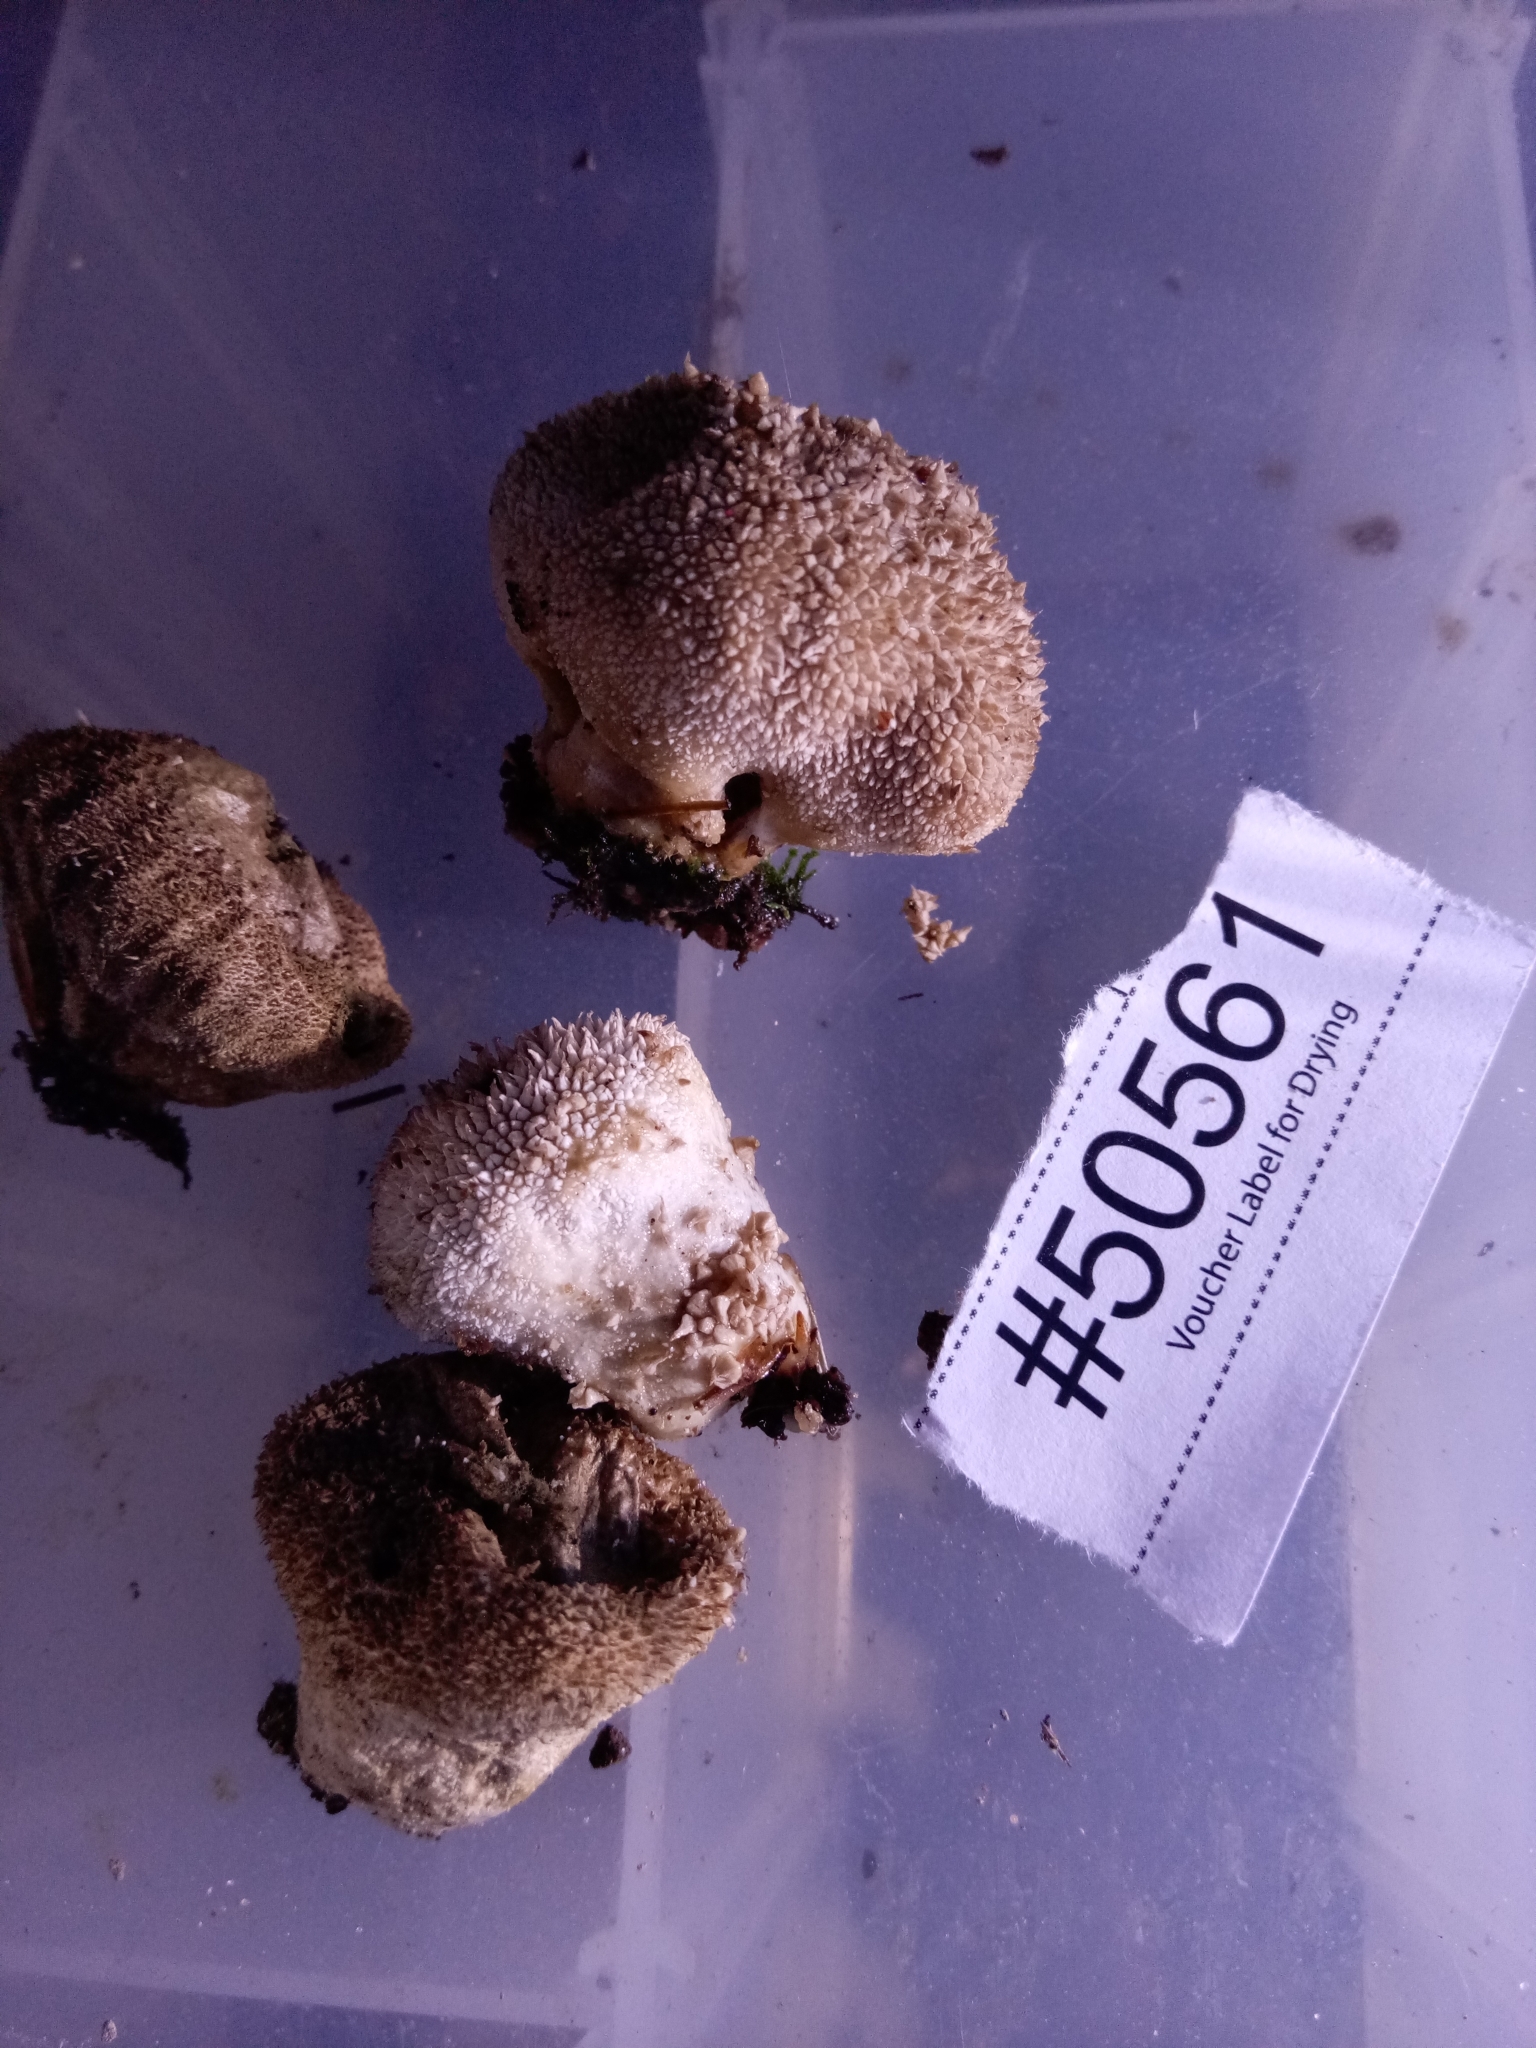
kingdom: Fungi
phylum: Basidiomycota
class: Agaricomycetes
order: Agaricales
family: Lycoperdaceae
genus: Lycoperdon
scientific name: Lycoperdon echinatum
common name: Hedgehog puffball
